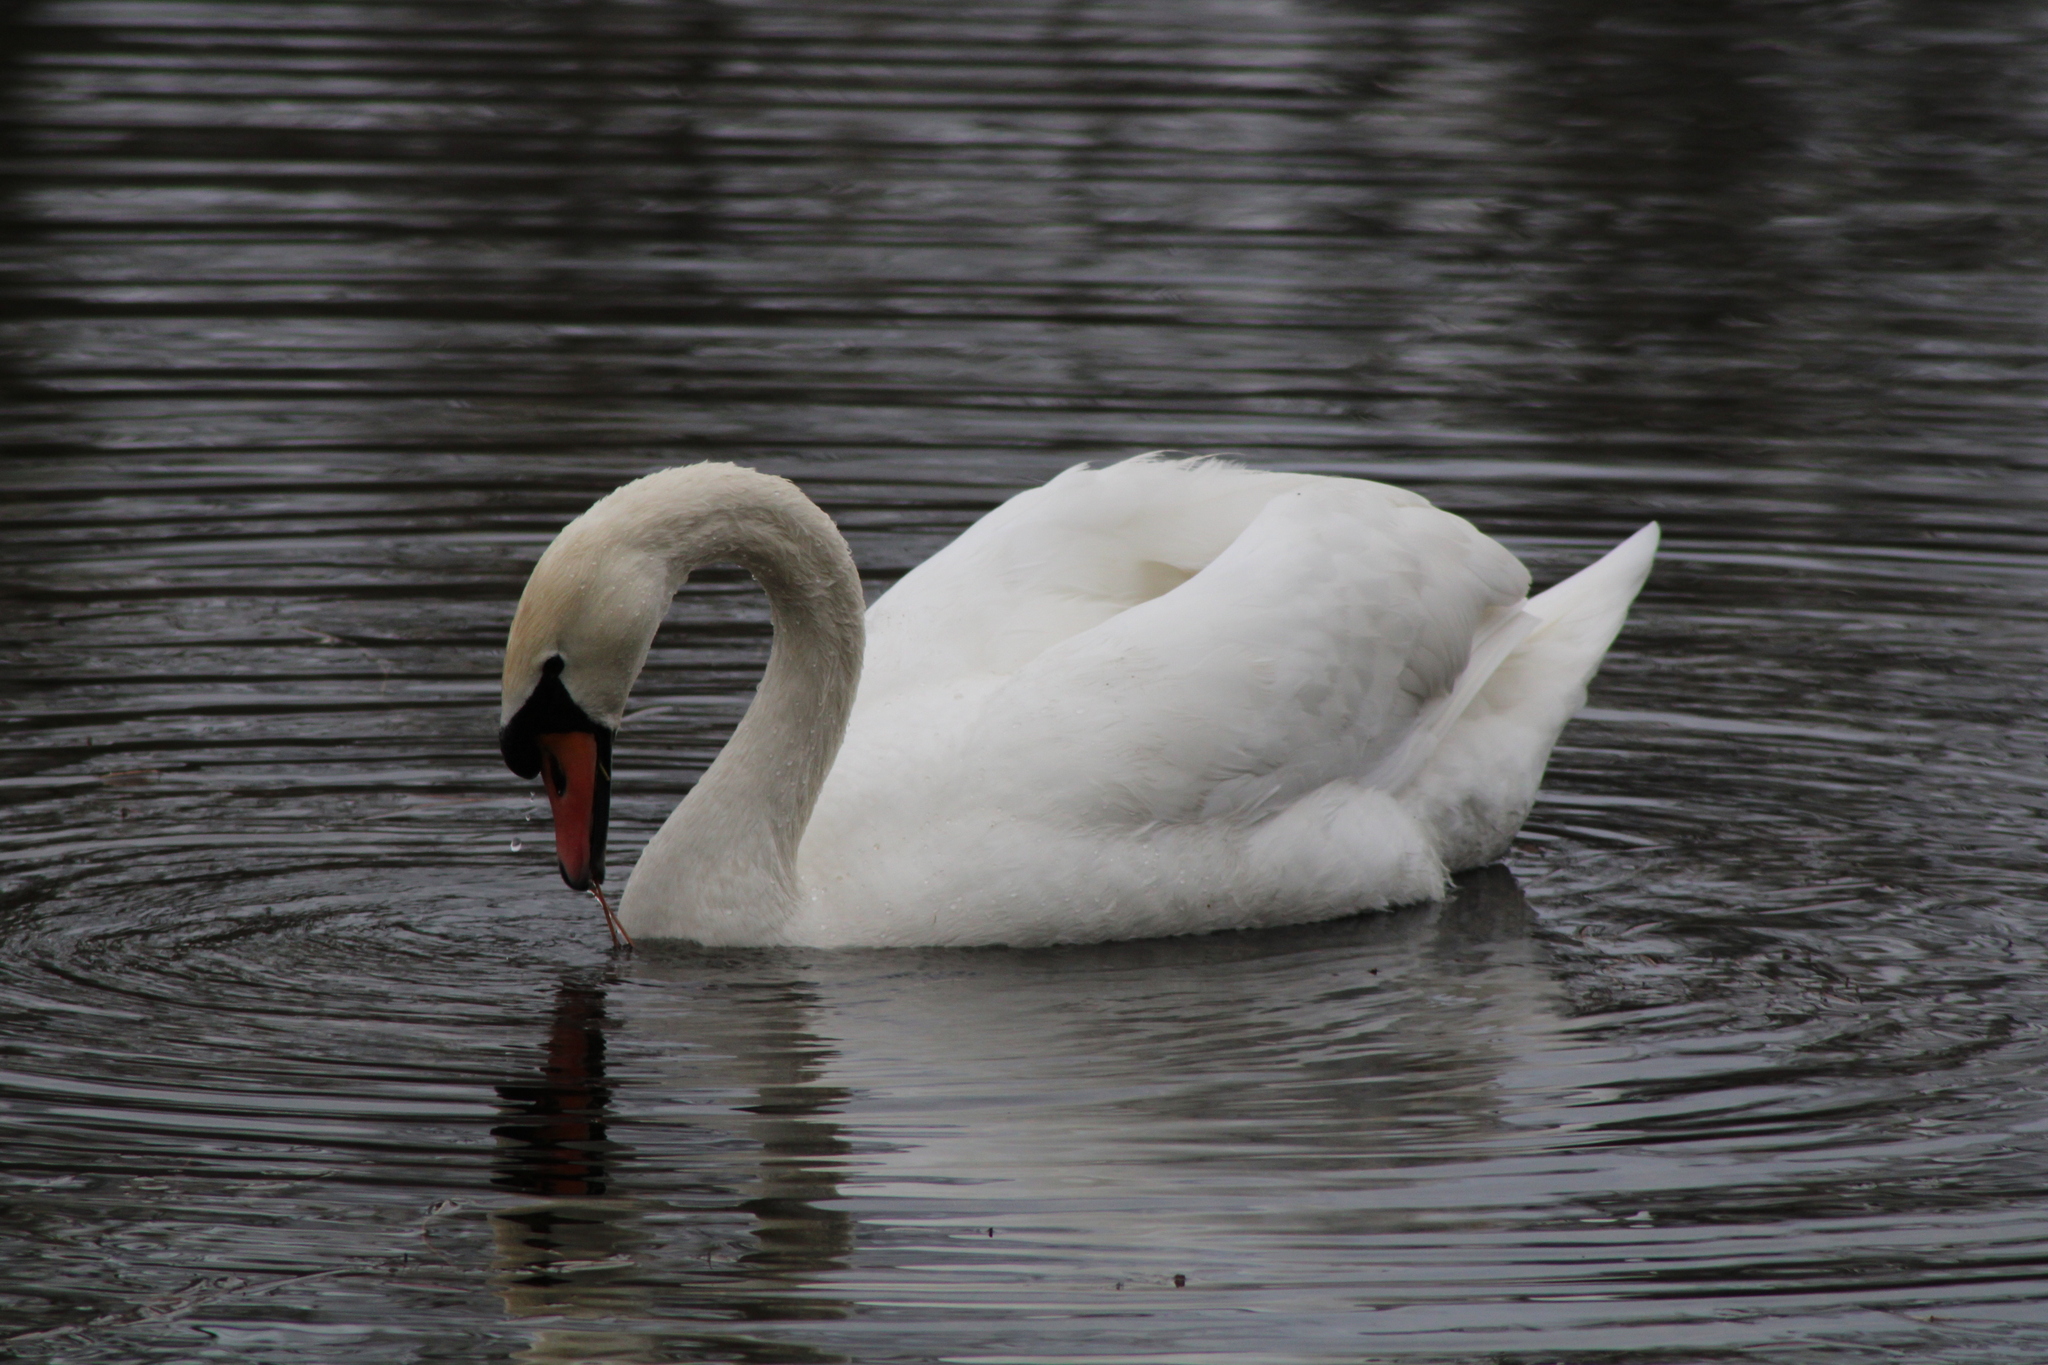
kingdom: Animalia
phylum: Chordata
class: Aves
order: Anseriformes
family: Anatidae
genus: Cygnus
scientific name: Cygnus olor
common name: Mute swan
